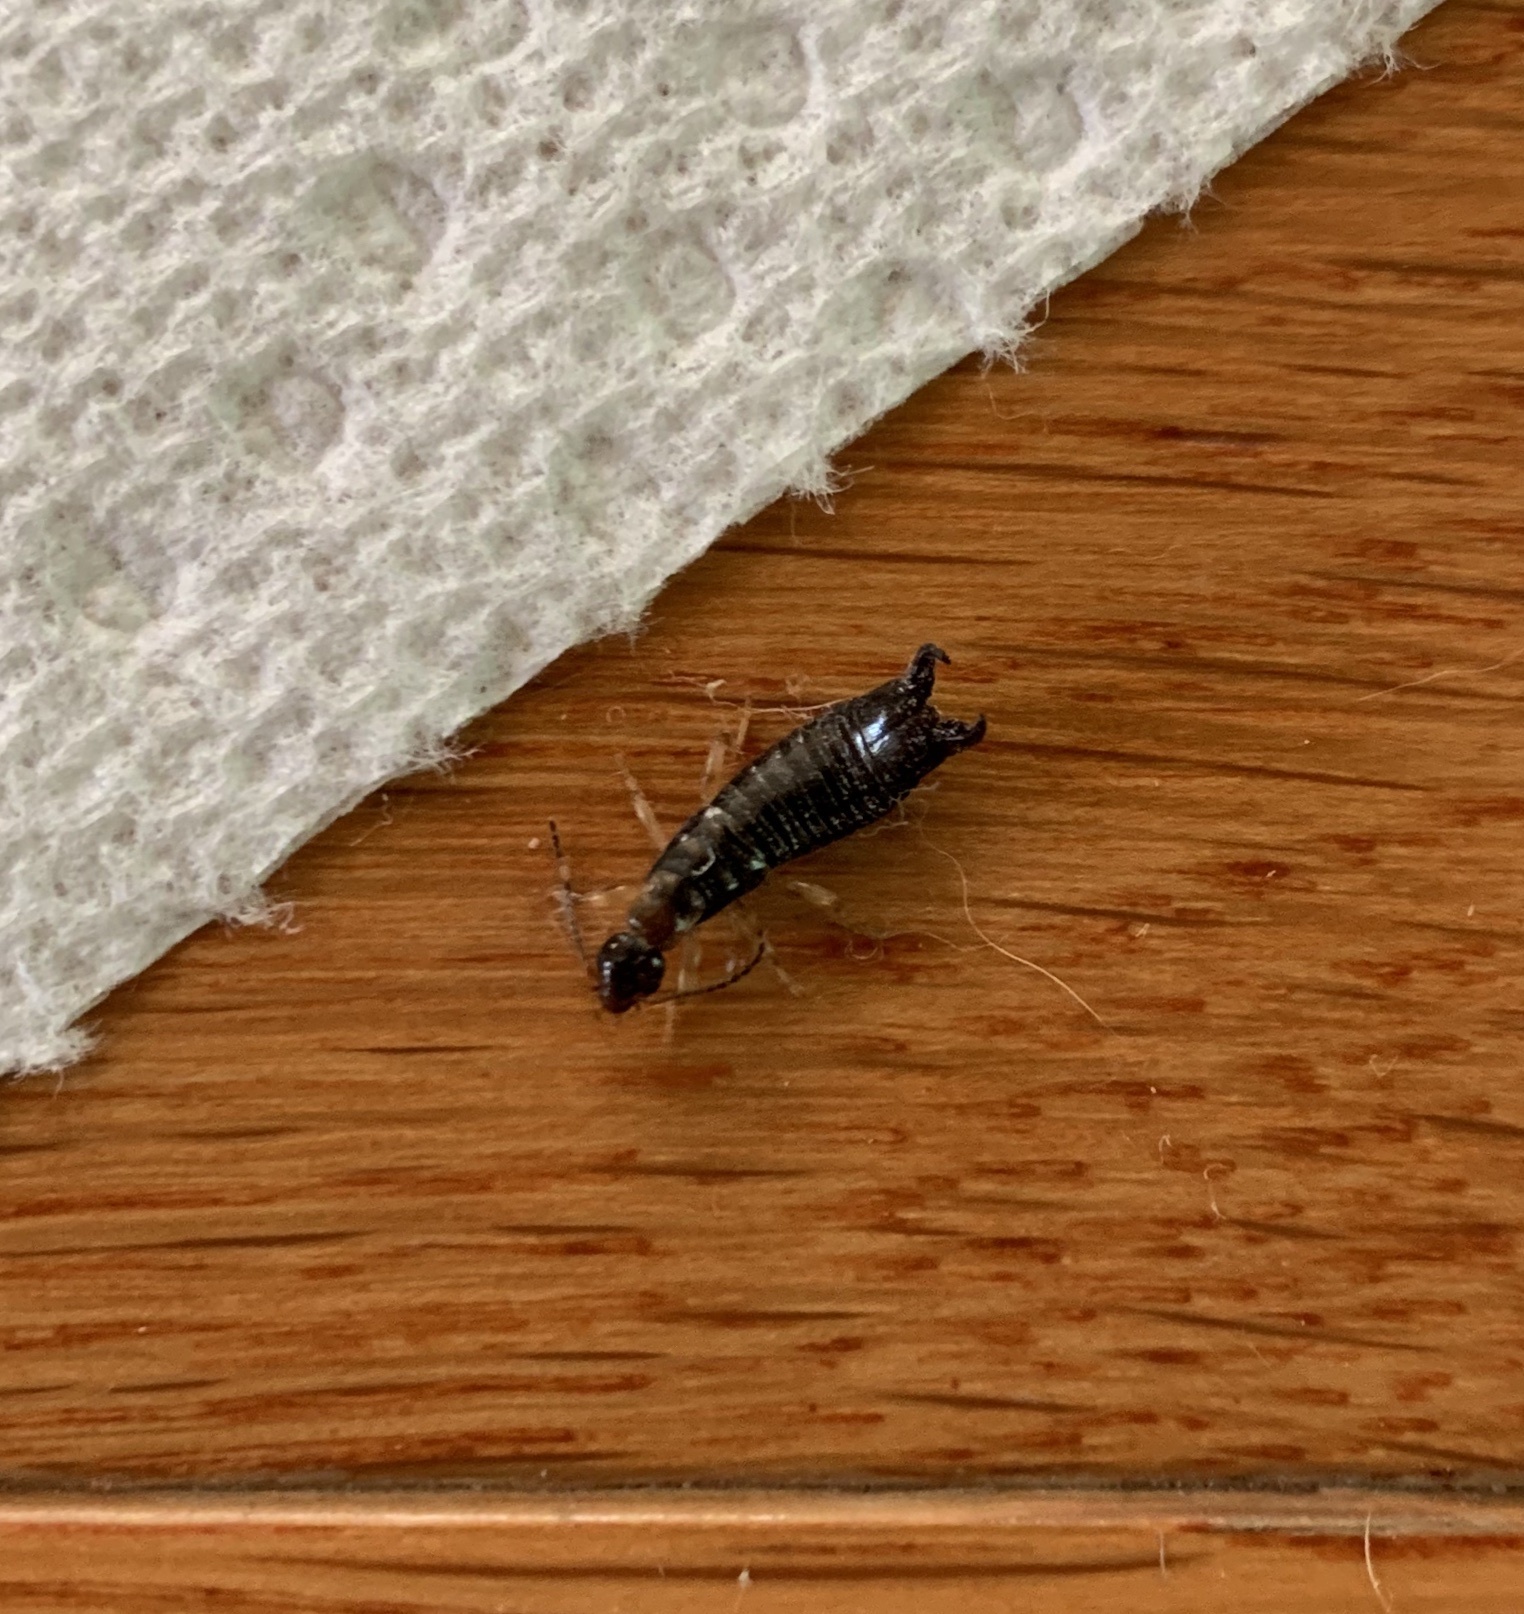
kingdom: Animalia
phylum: Arthropoda
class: Insecta
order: Dermaptera
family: Anisolabididae
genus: Euborellia
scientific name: Euborellia annulipes
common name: Ringlegged earwig
